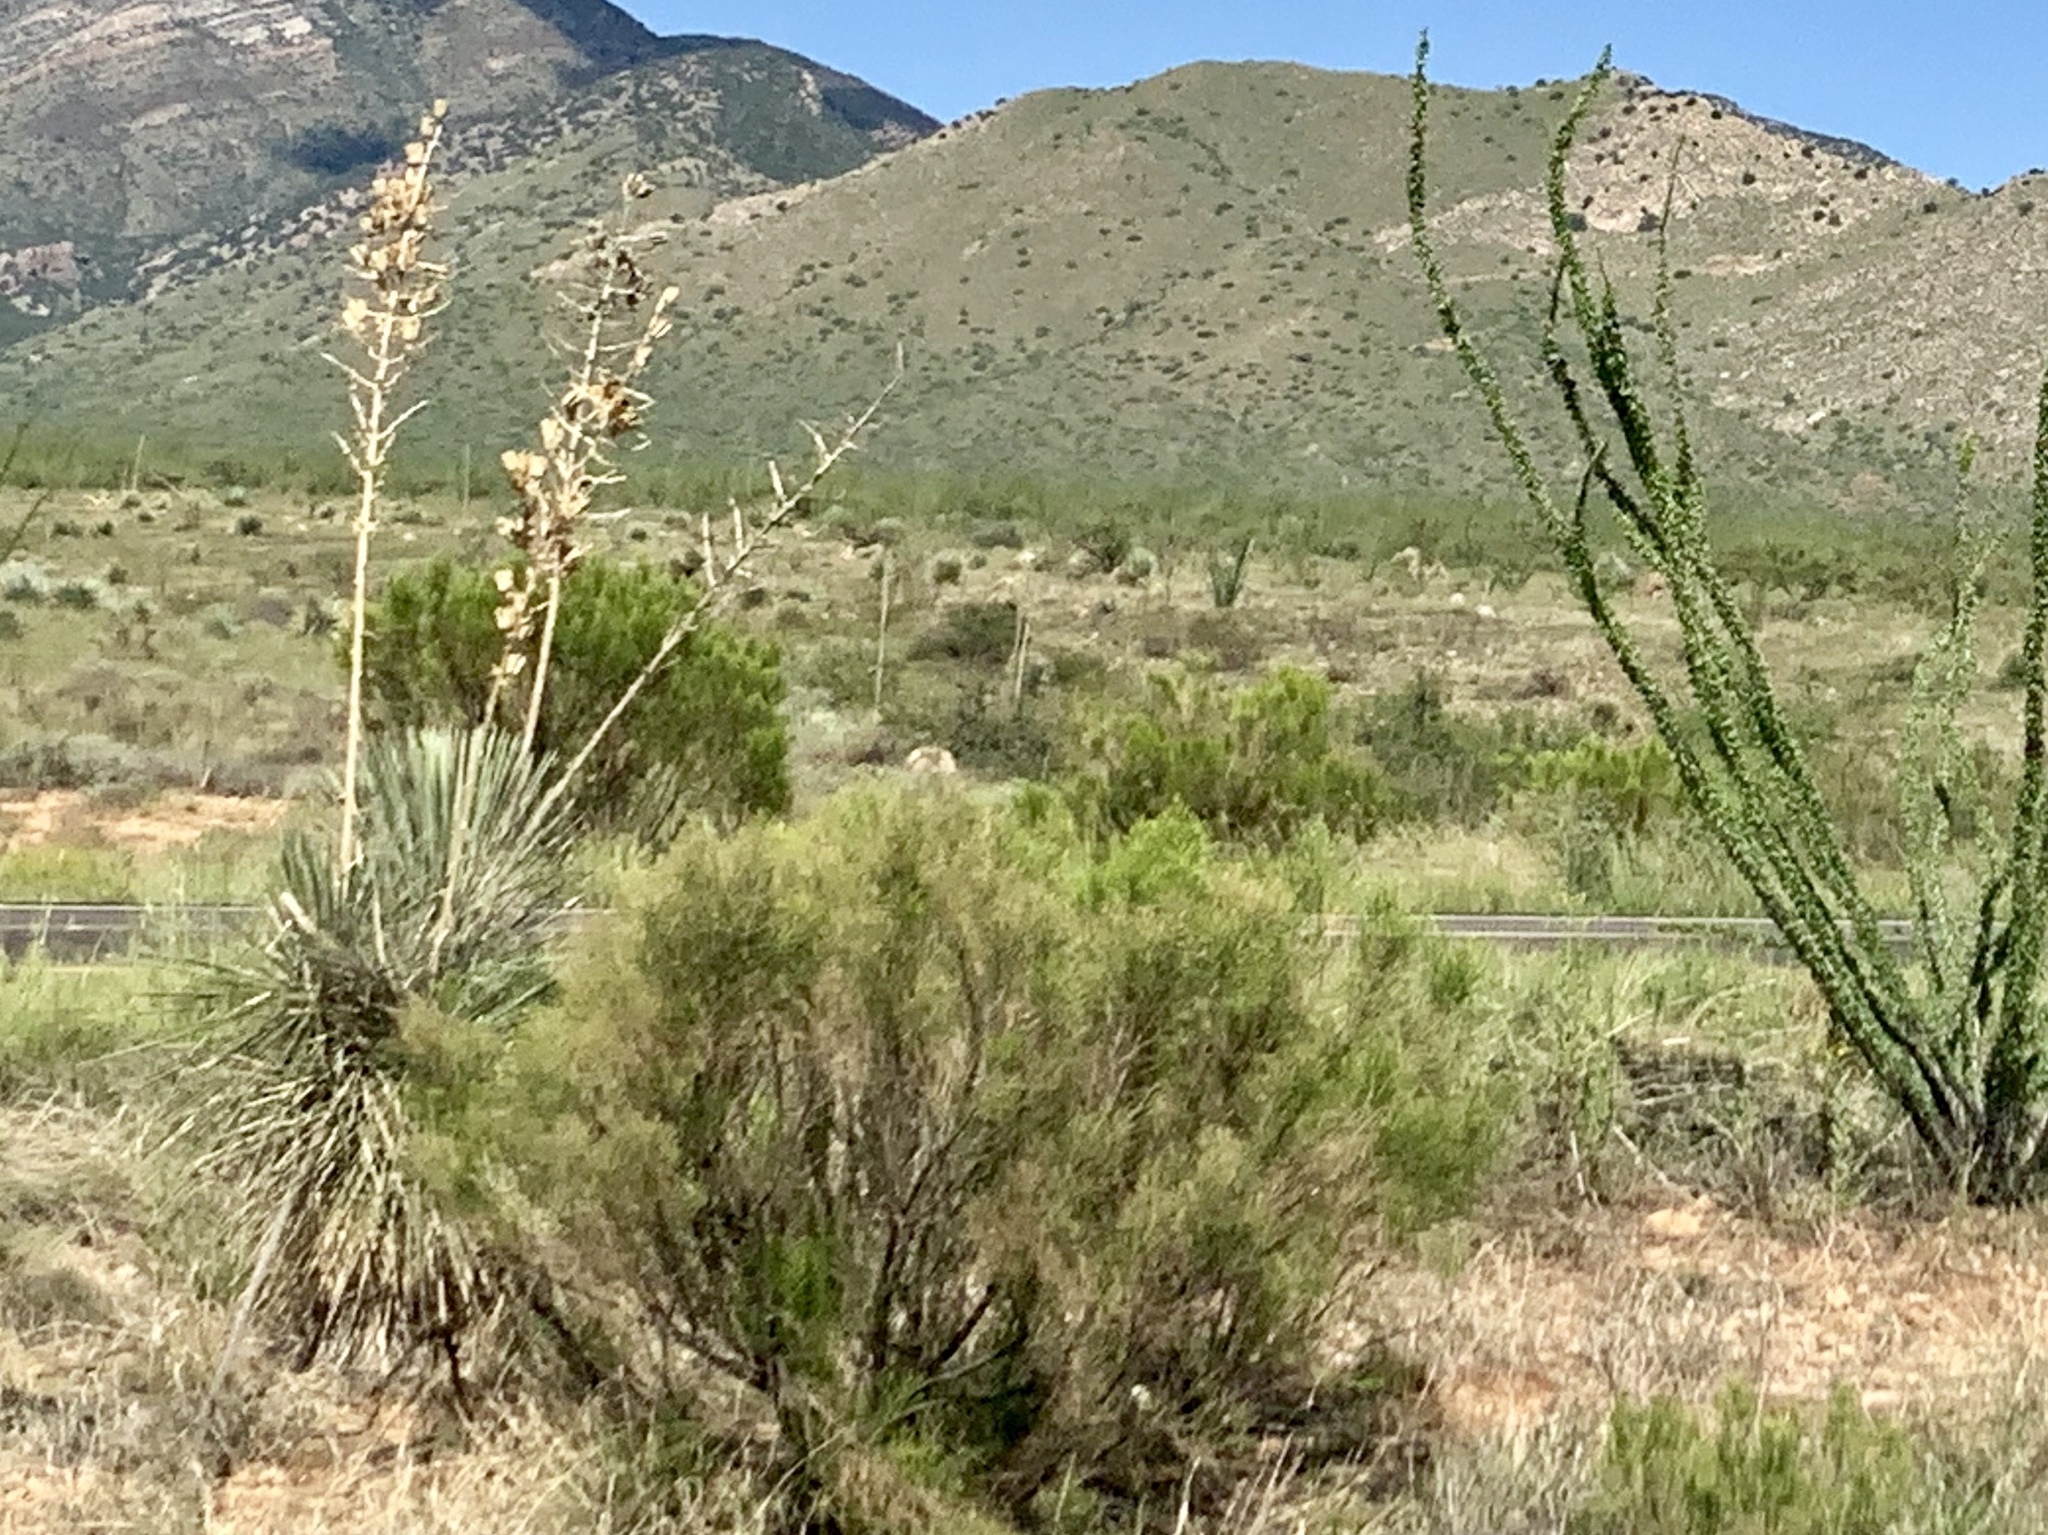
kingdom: Plantae
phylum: Tracheophyta
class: Liliopsida
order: Asparagales
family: Asparagaceae
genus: Yucca
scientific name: Yucca elata
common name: Palmella
